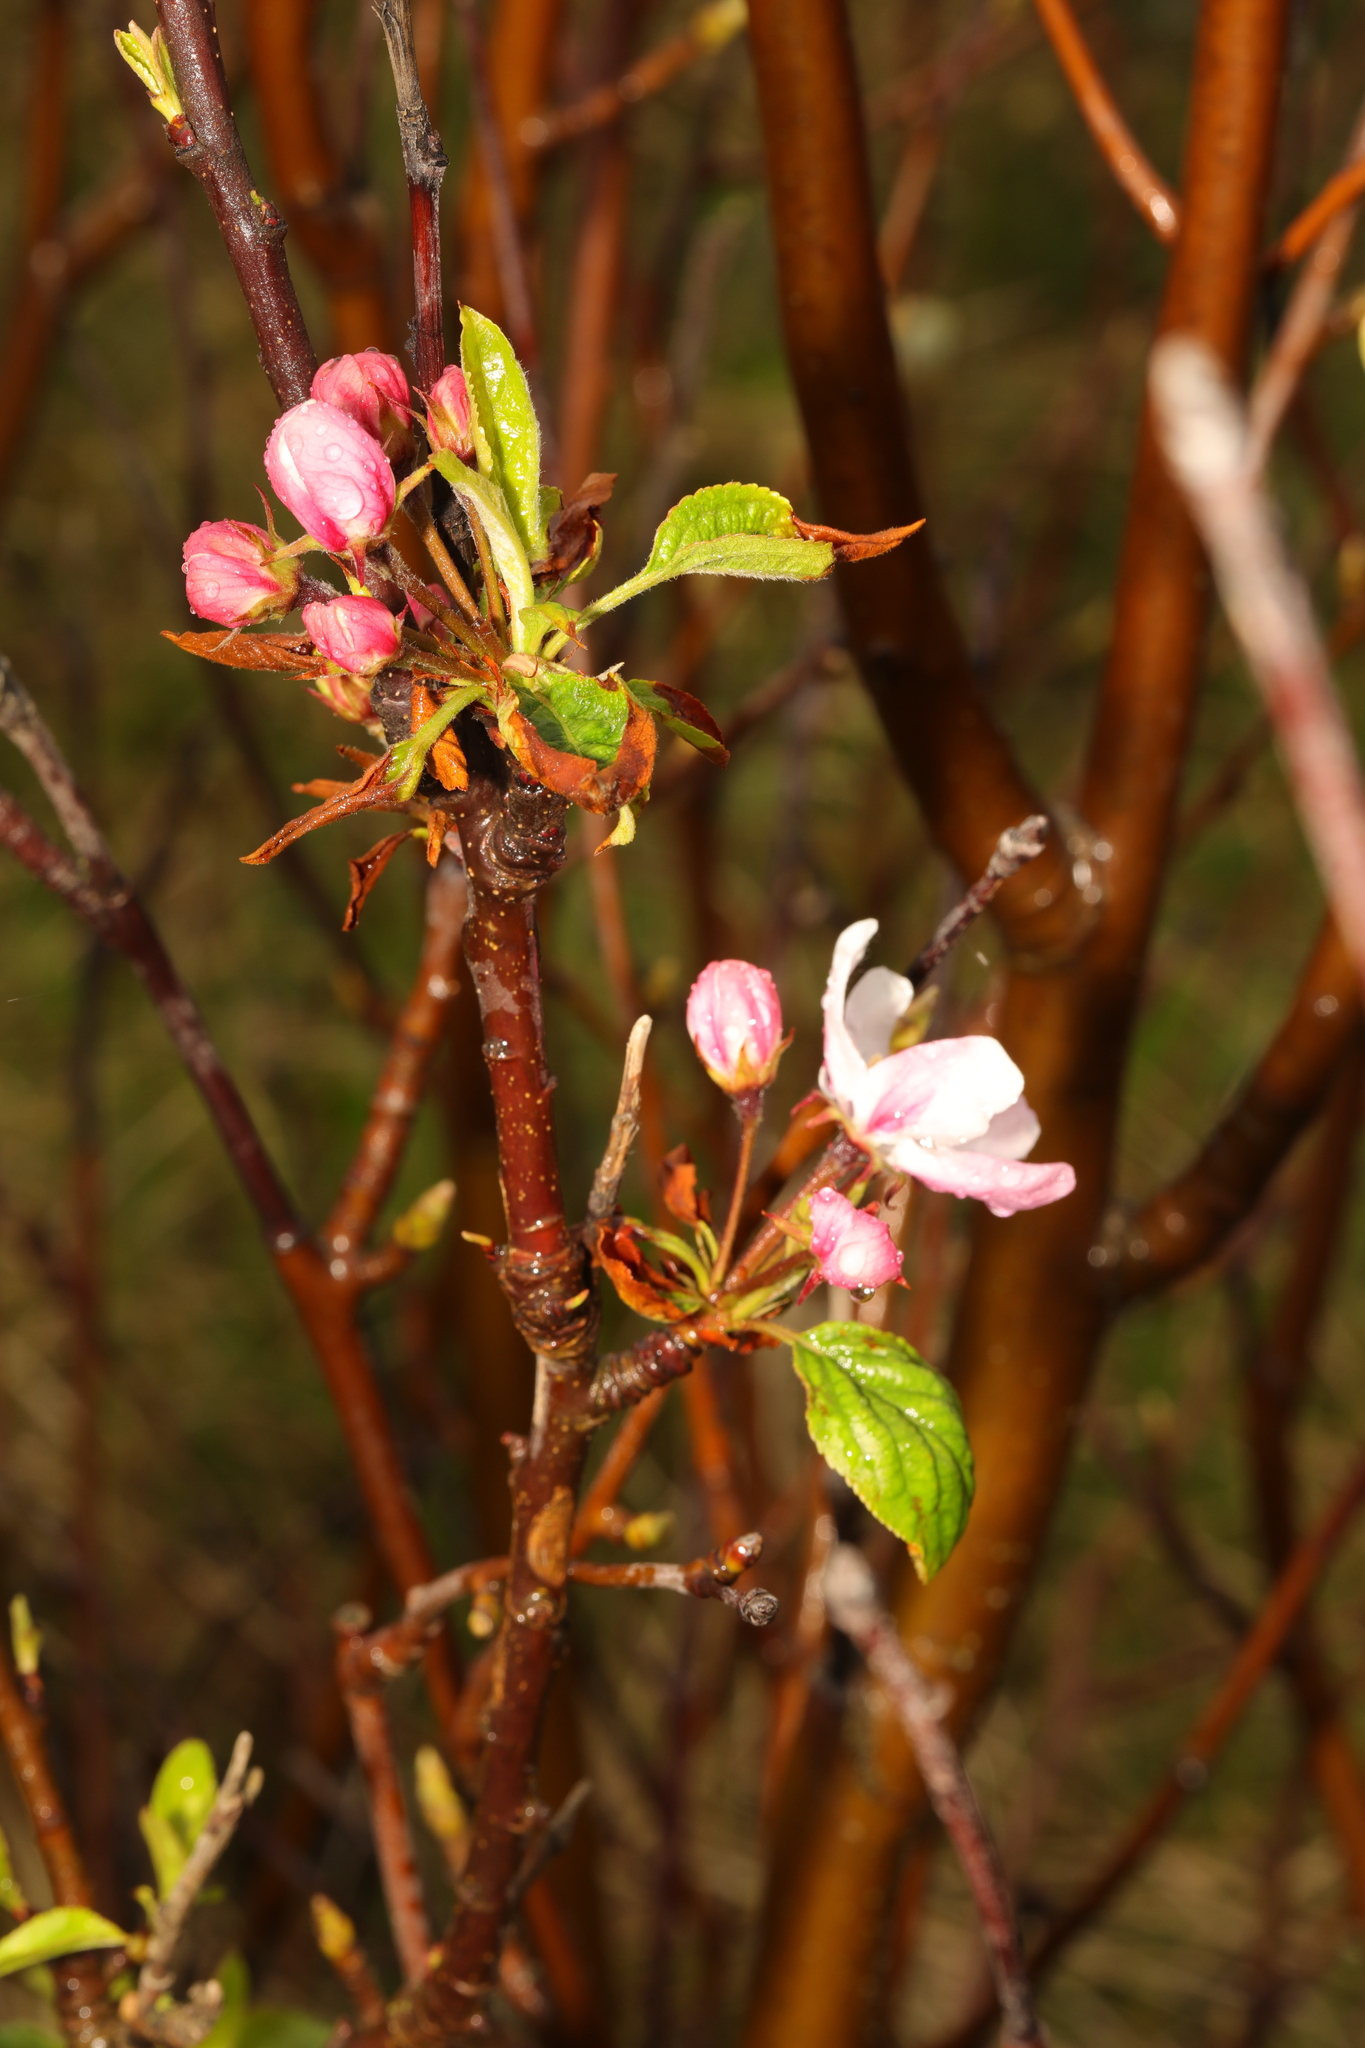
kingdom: Plantae
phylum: Tracheophyta
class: Magnoliopsida
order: Rosales
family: Rosaceae
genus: Malus
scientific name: Malus domestica
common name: Apple
